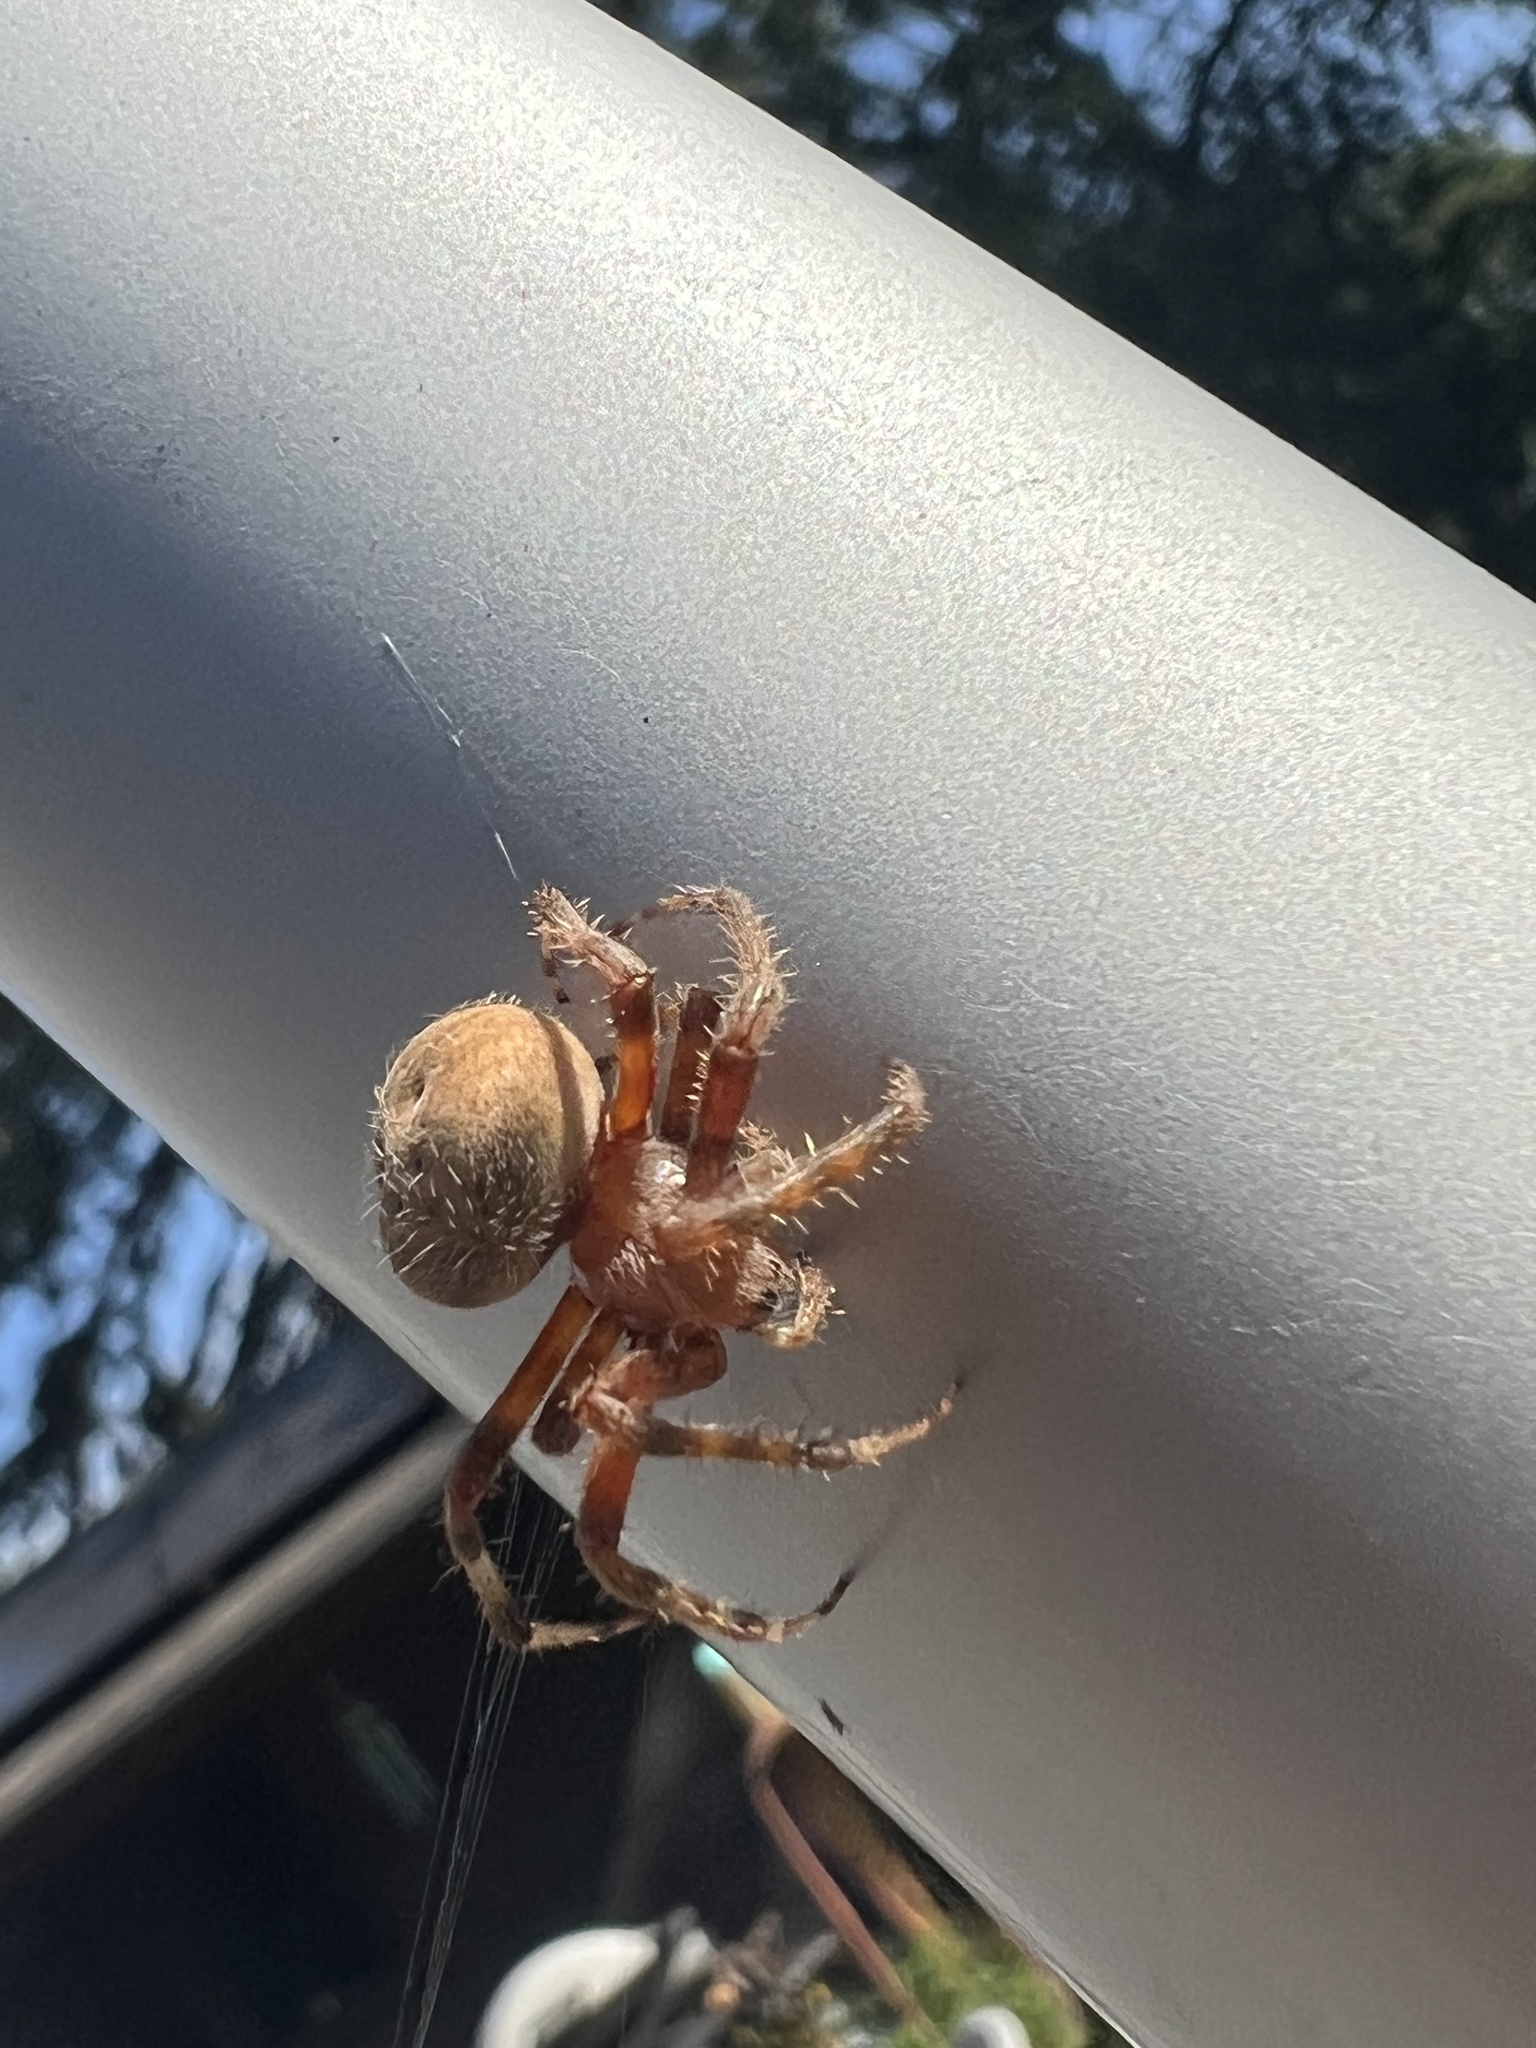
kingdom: Animalia
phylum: Arthropoda
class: Arachnida
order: Araneae
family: Araneidae
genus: Neoscona
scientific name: Neoscona crucifera
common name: Spotted orbweaver
